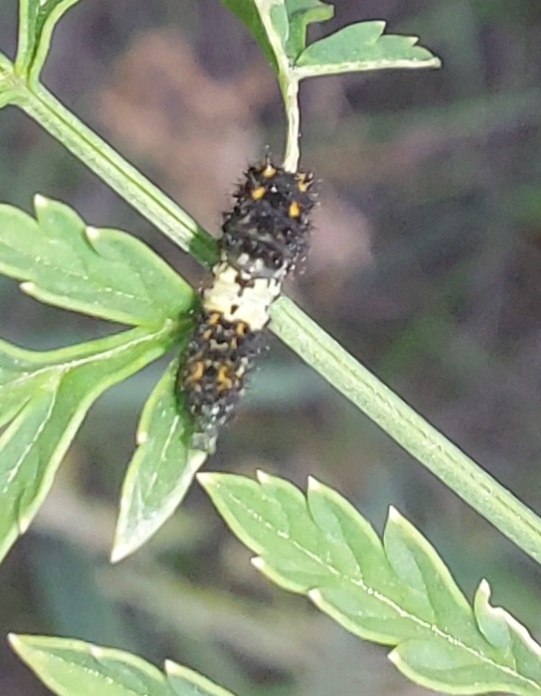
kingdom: Animalia
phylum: Arthropoda
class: Insecta
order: Lepidoptera
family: Papilionidae
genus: Papilio
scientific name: Papilio machaon
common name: Swallowtail
